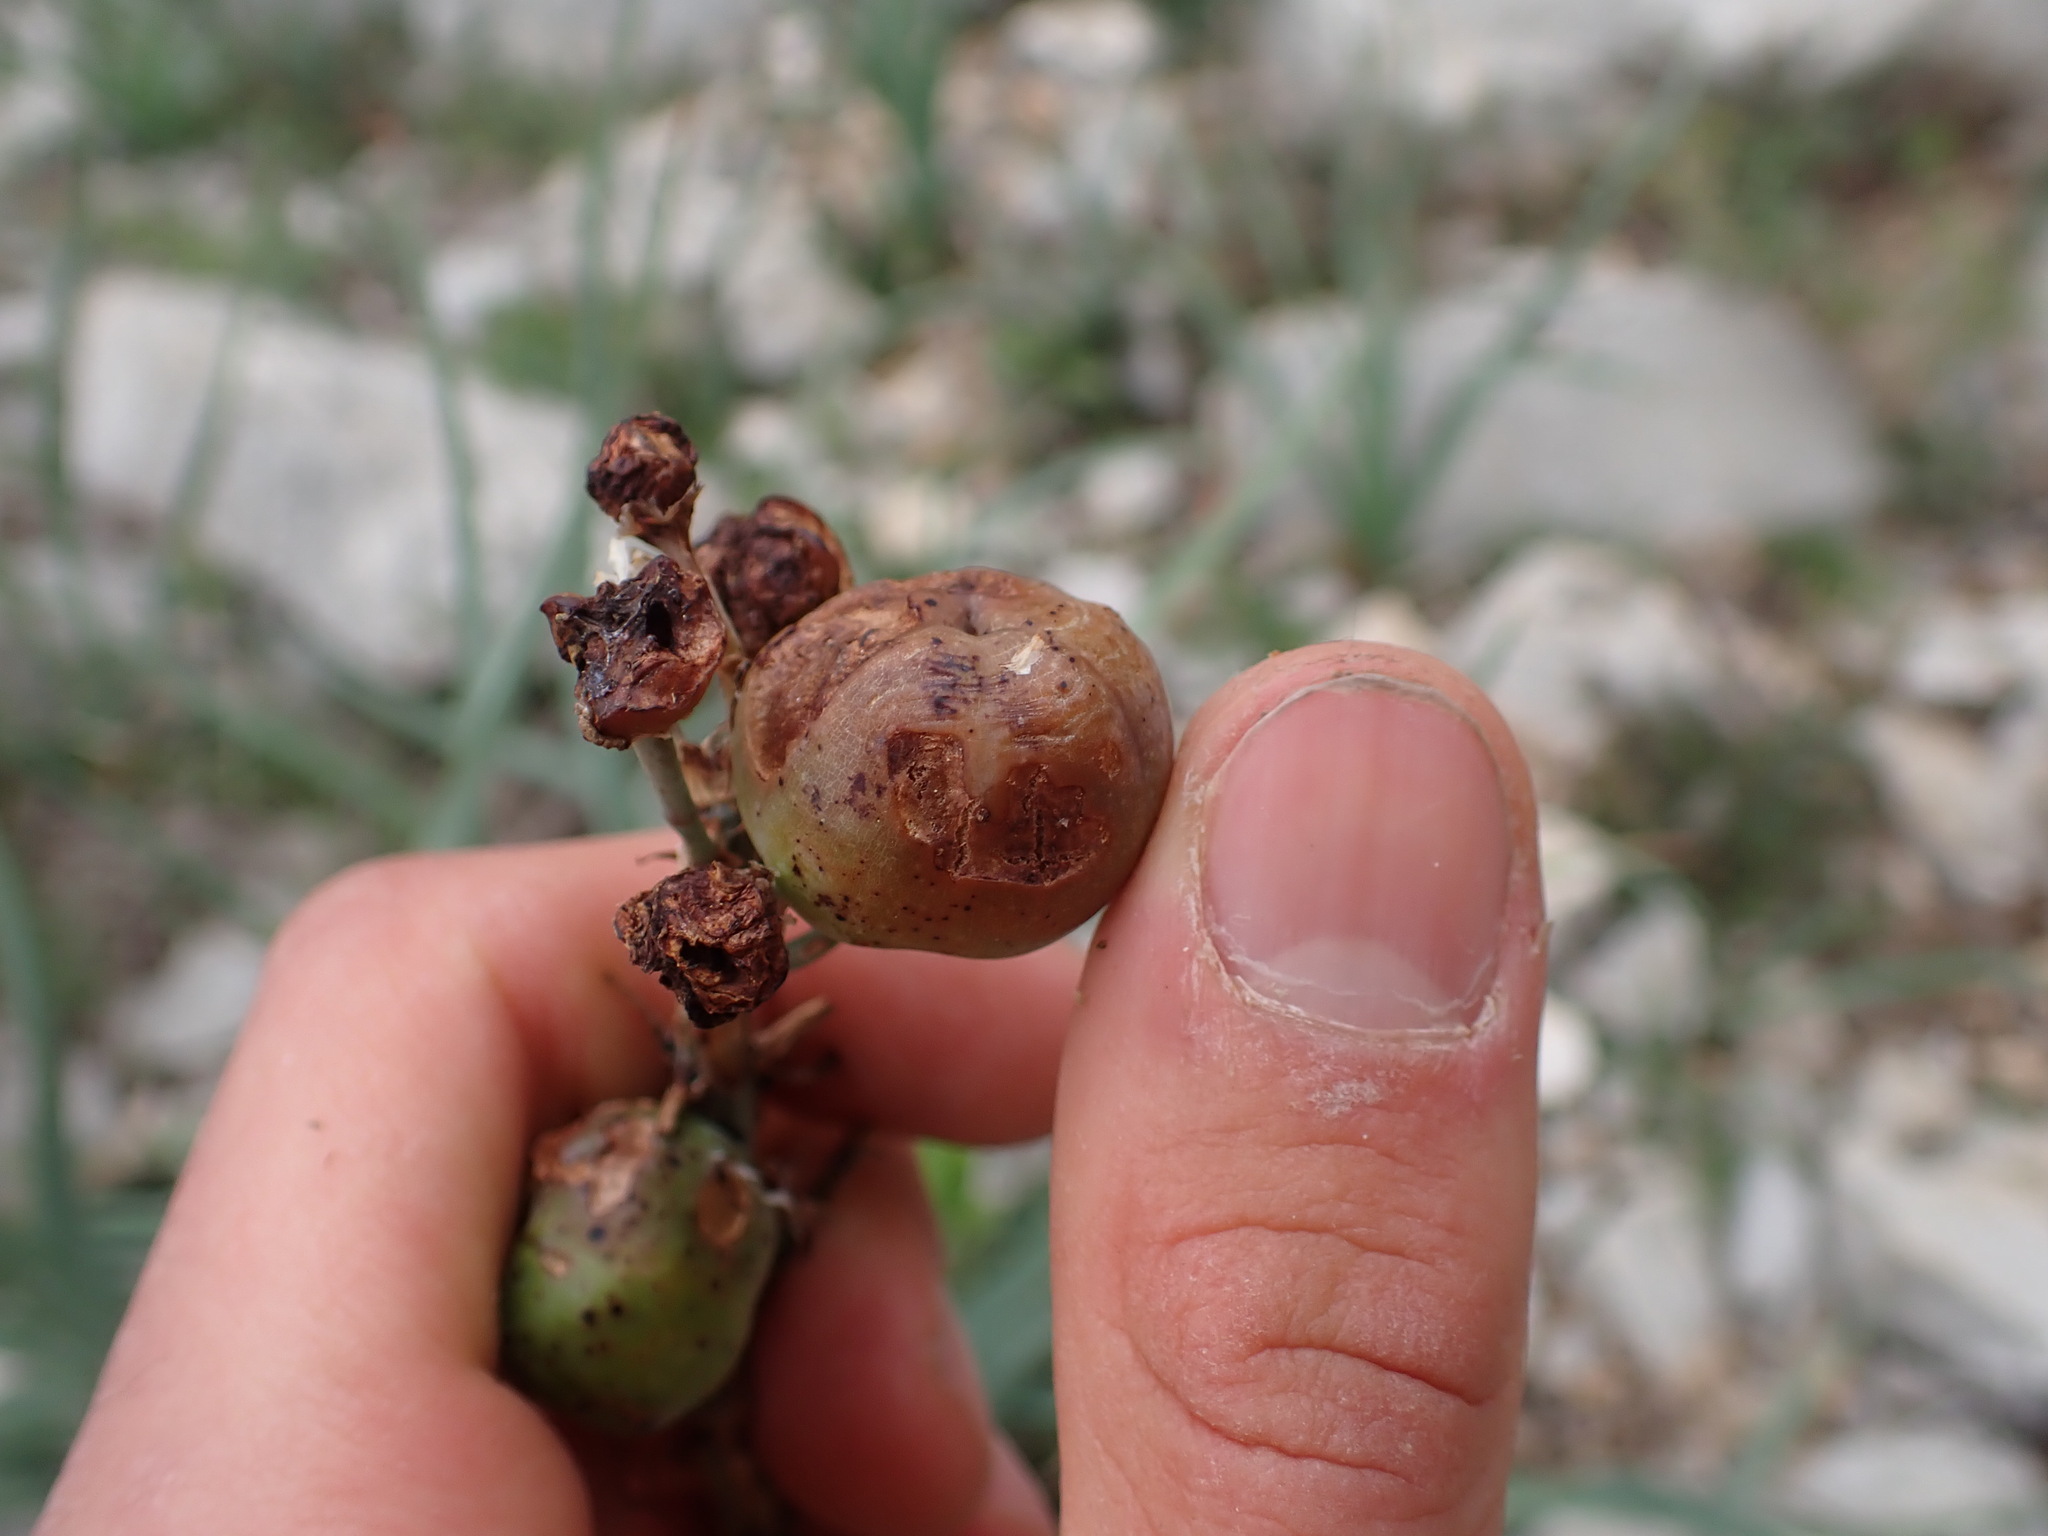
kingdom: Plantae
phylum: Tracheophyta
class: Liliopsida
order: Asparagales
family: Asphodelaceae
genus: Asphodelus
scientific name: Asphodelus cerasifer
